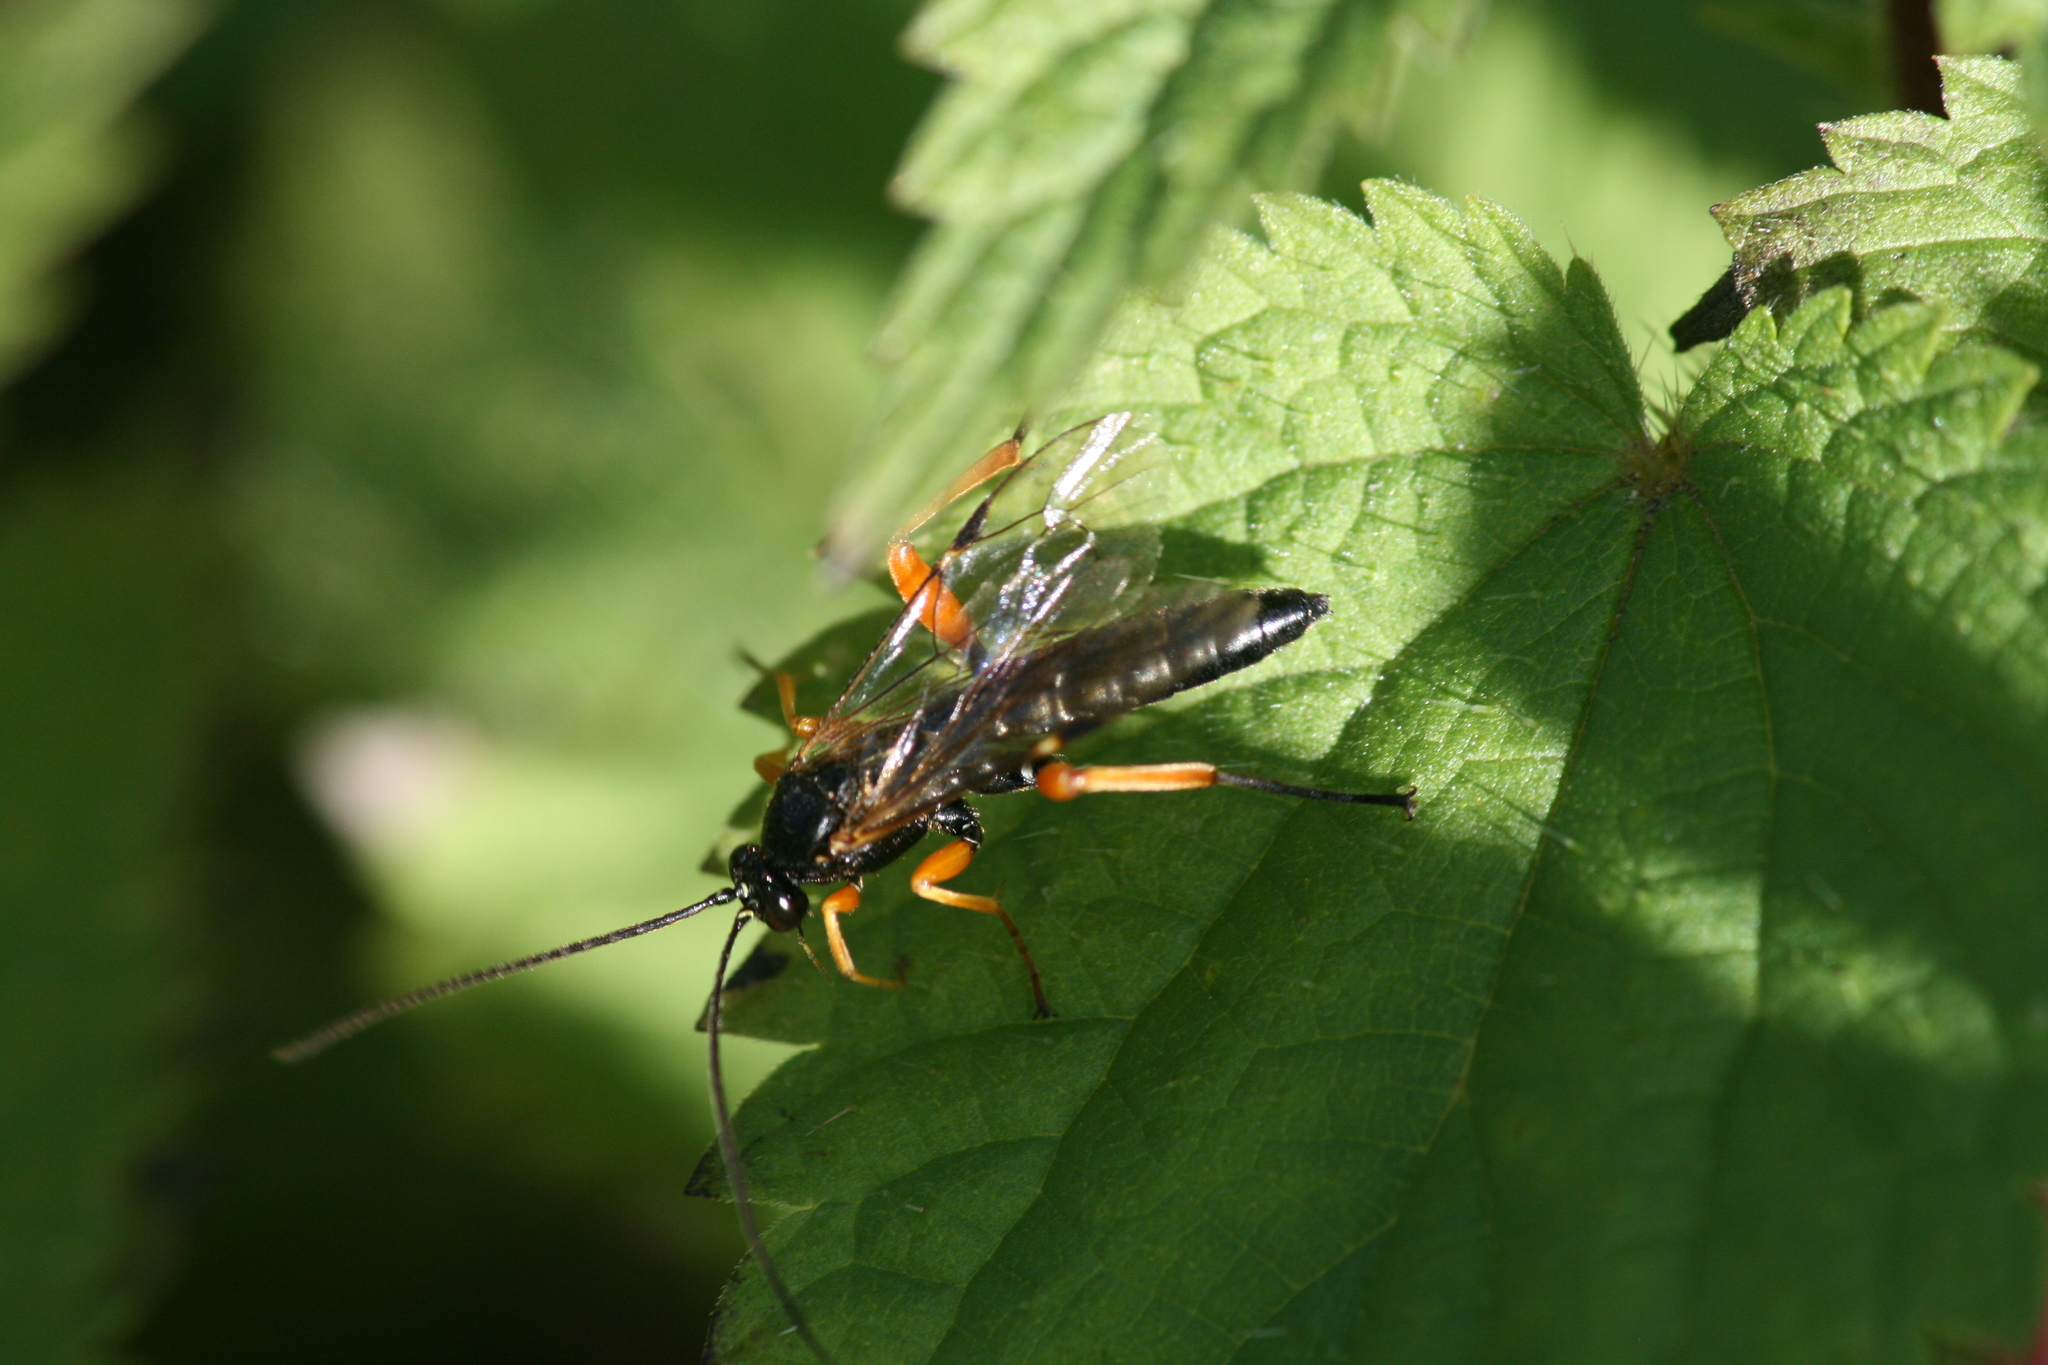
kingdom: Animalia
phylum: Arthropoda
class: Insecta
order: Hymenoptera
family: Ichneumonidae
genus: Pimpla
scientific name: Pimpla rufipes
